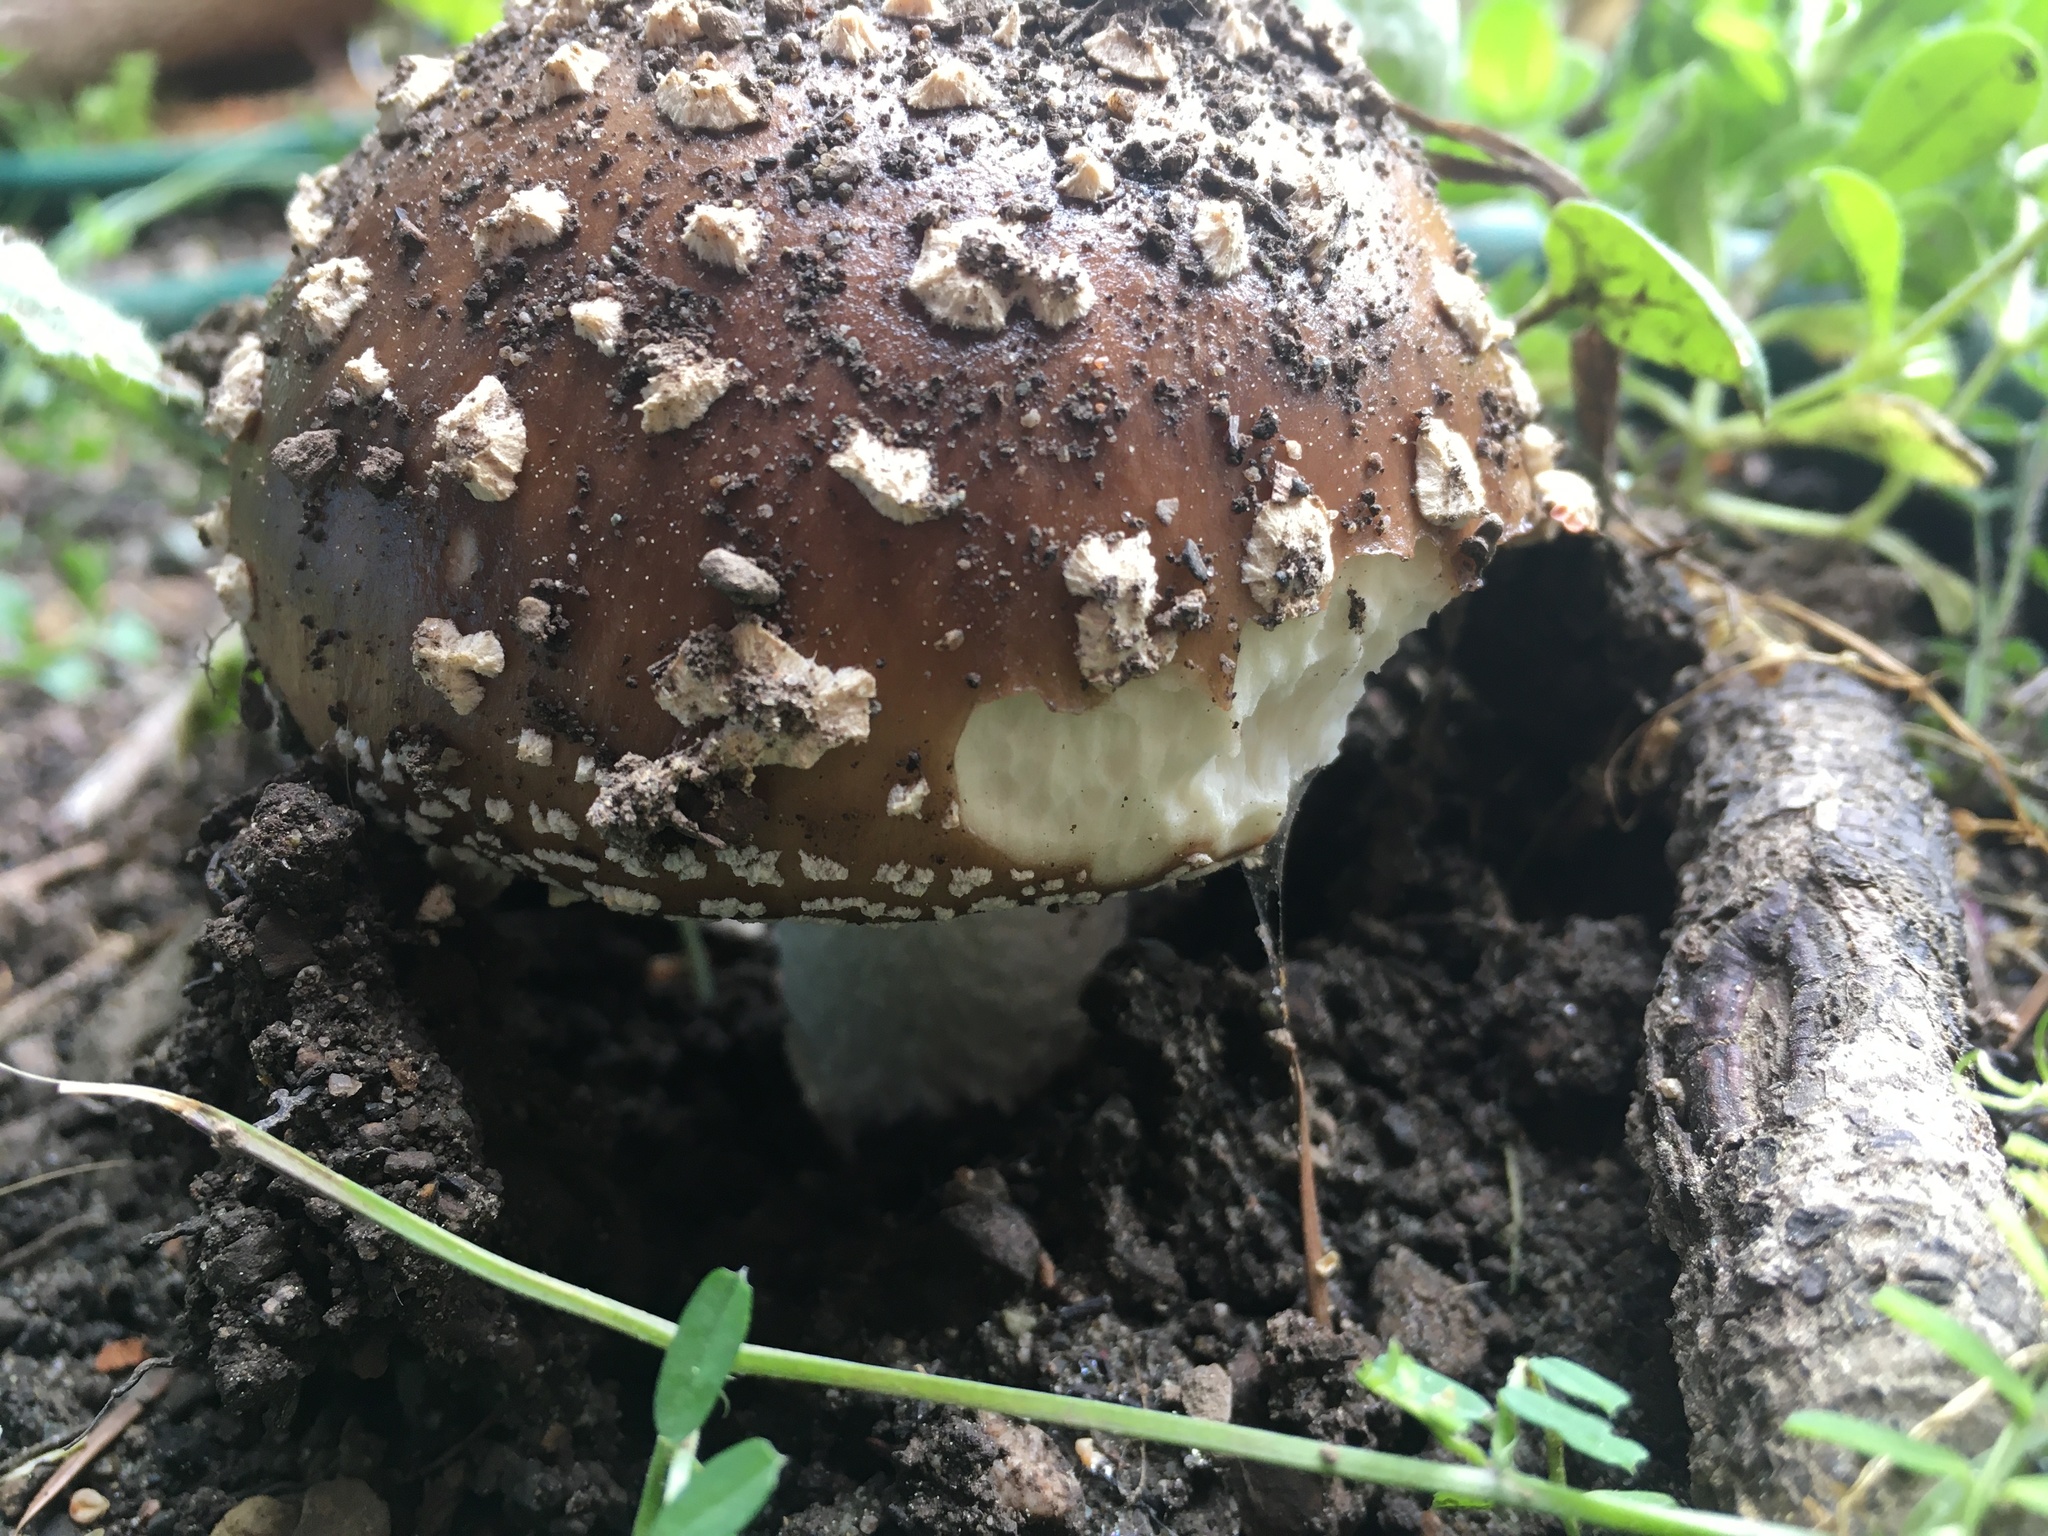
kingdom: Fungi
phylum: Basidiomycota
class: Agaricomycetes
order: Agaricales
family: Amanitaceae
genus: Amanita
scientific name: Amanita pantherina
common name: Panthercap
